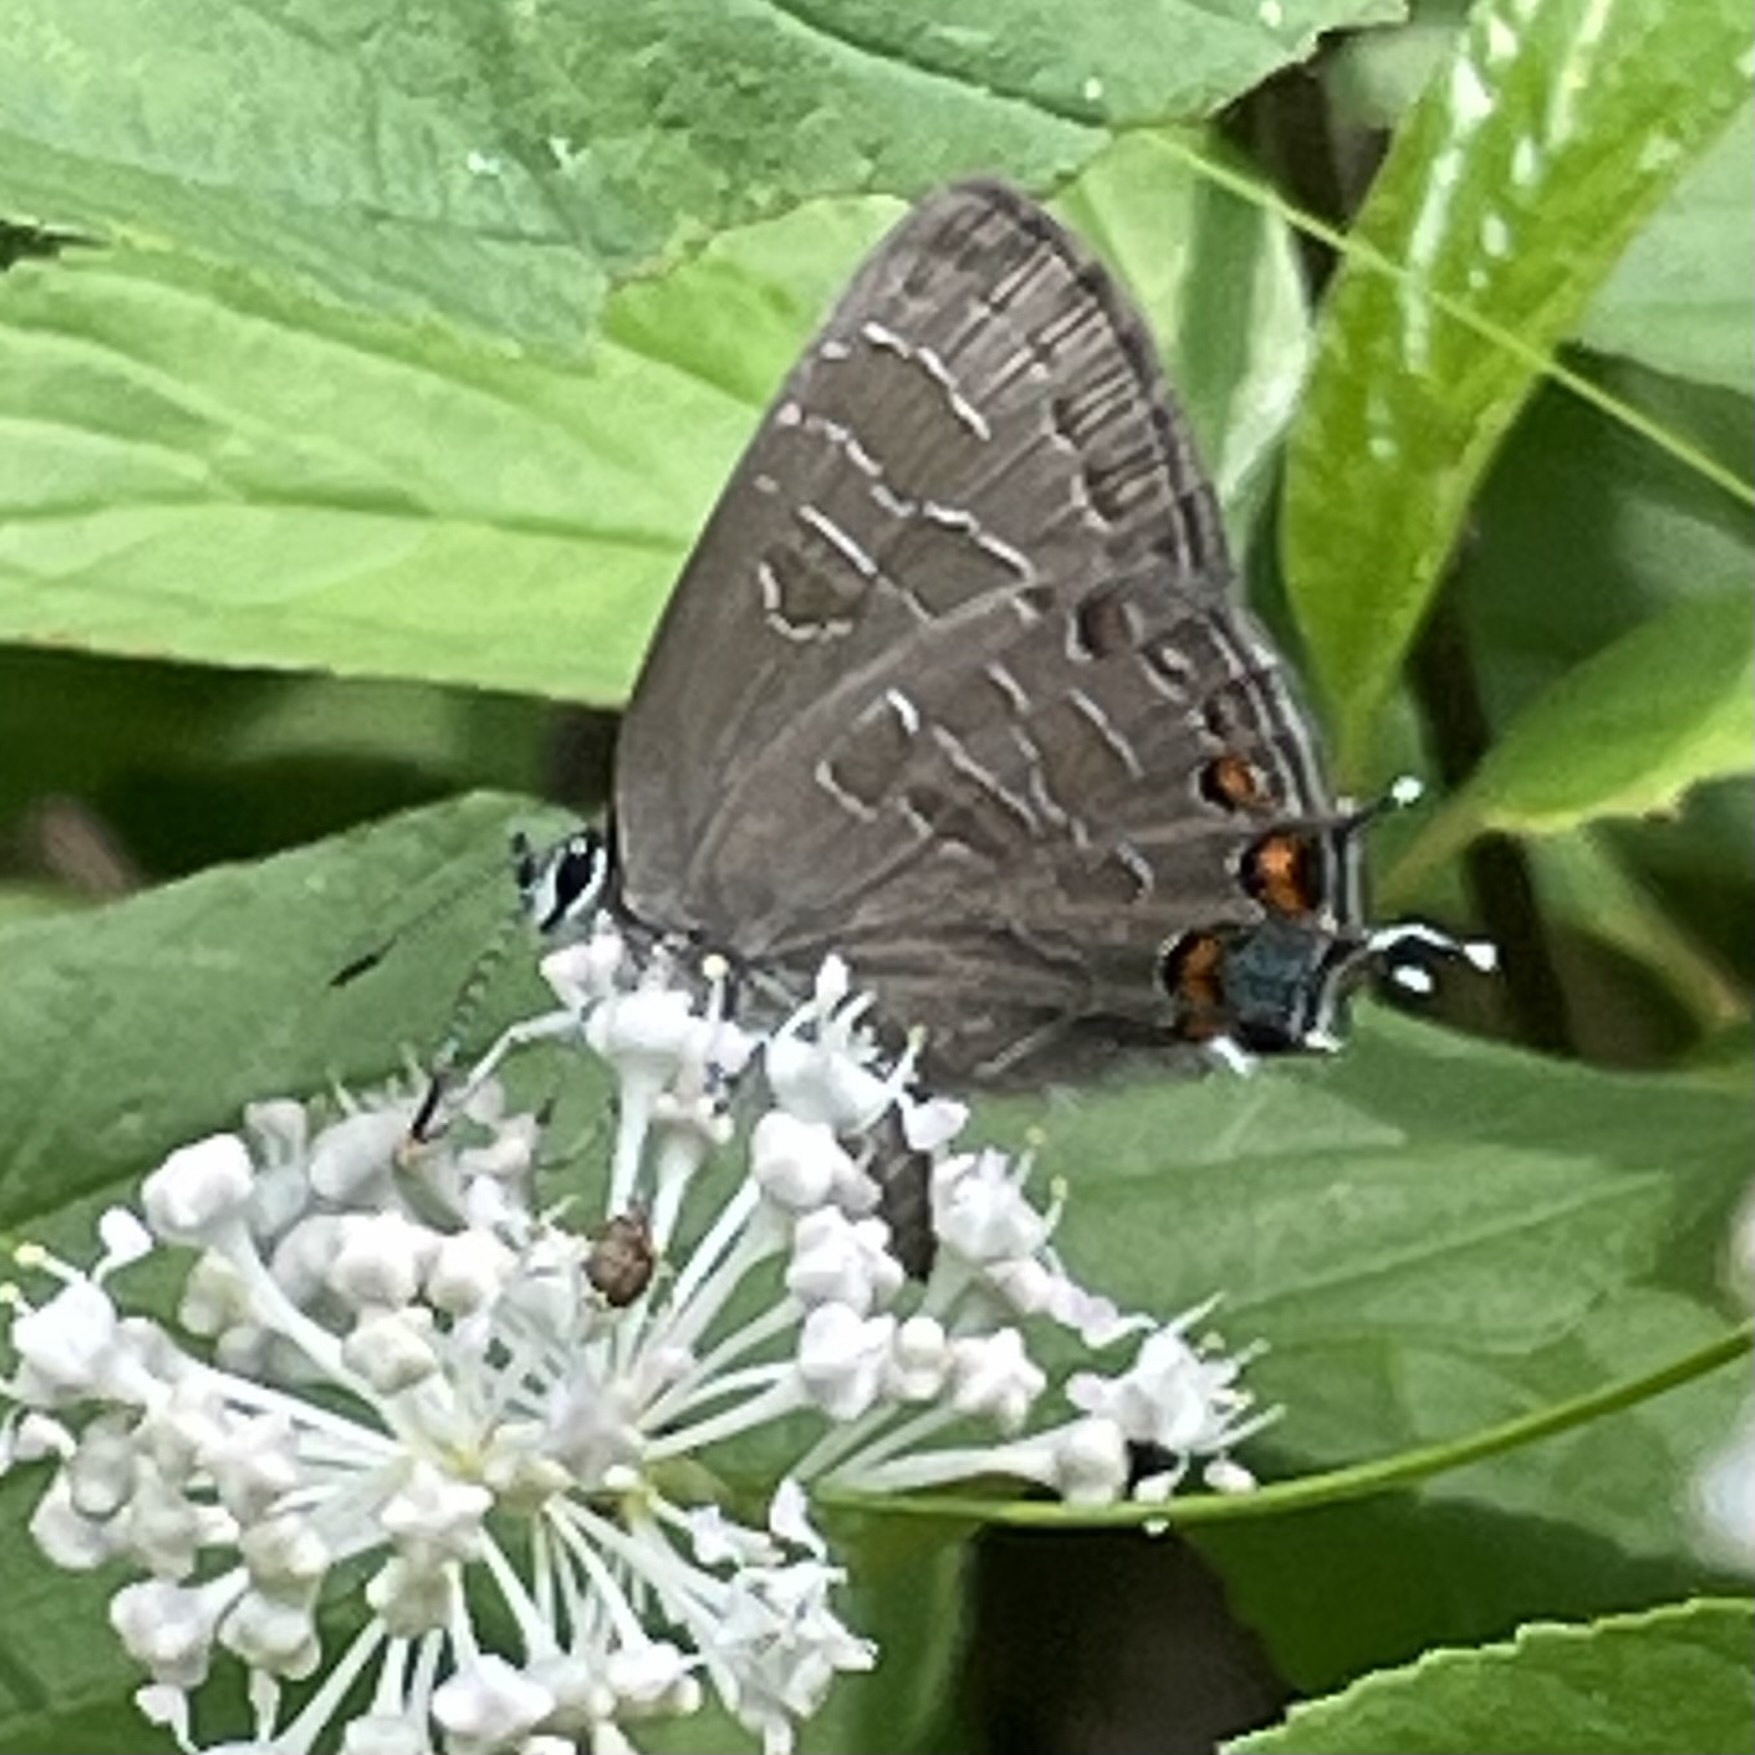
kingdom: Animalia
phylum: Arthropoda
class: Insecta
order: Lepidoptera
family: Lycaenidae
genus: Satyrium
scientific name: Satyrium liparops
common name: Striped hairstreak
